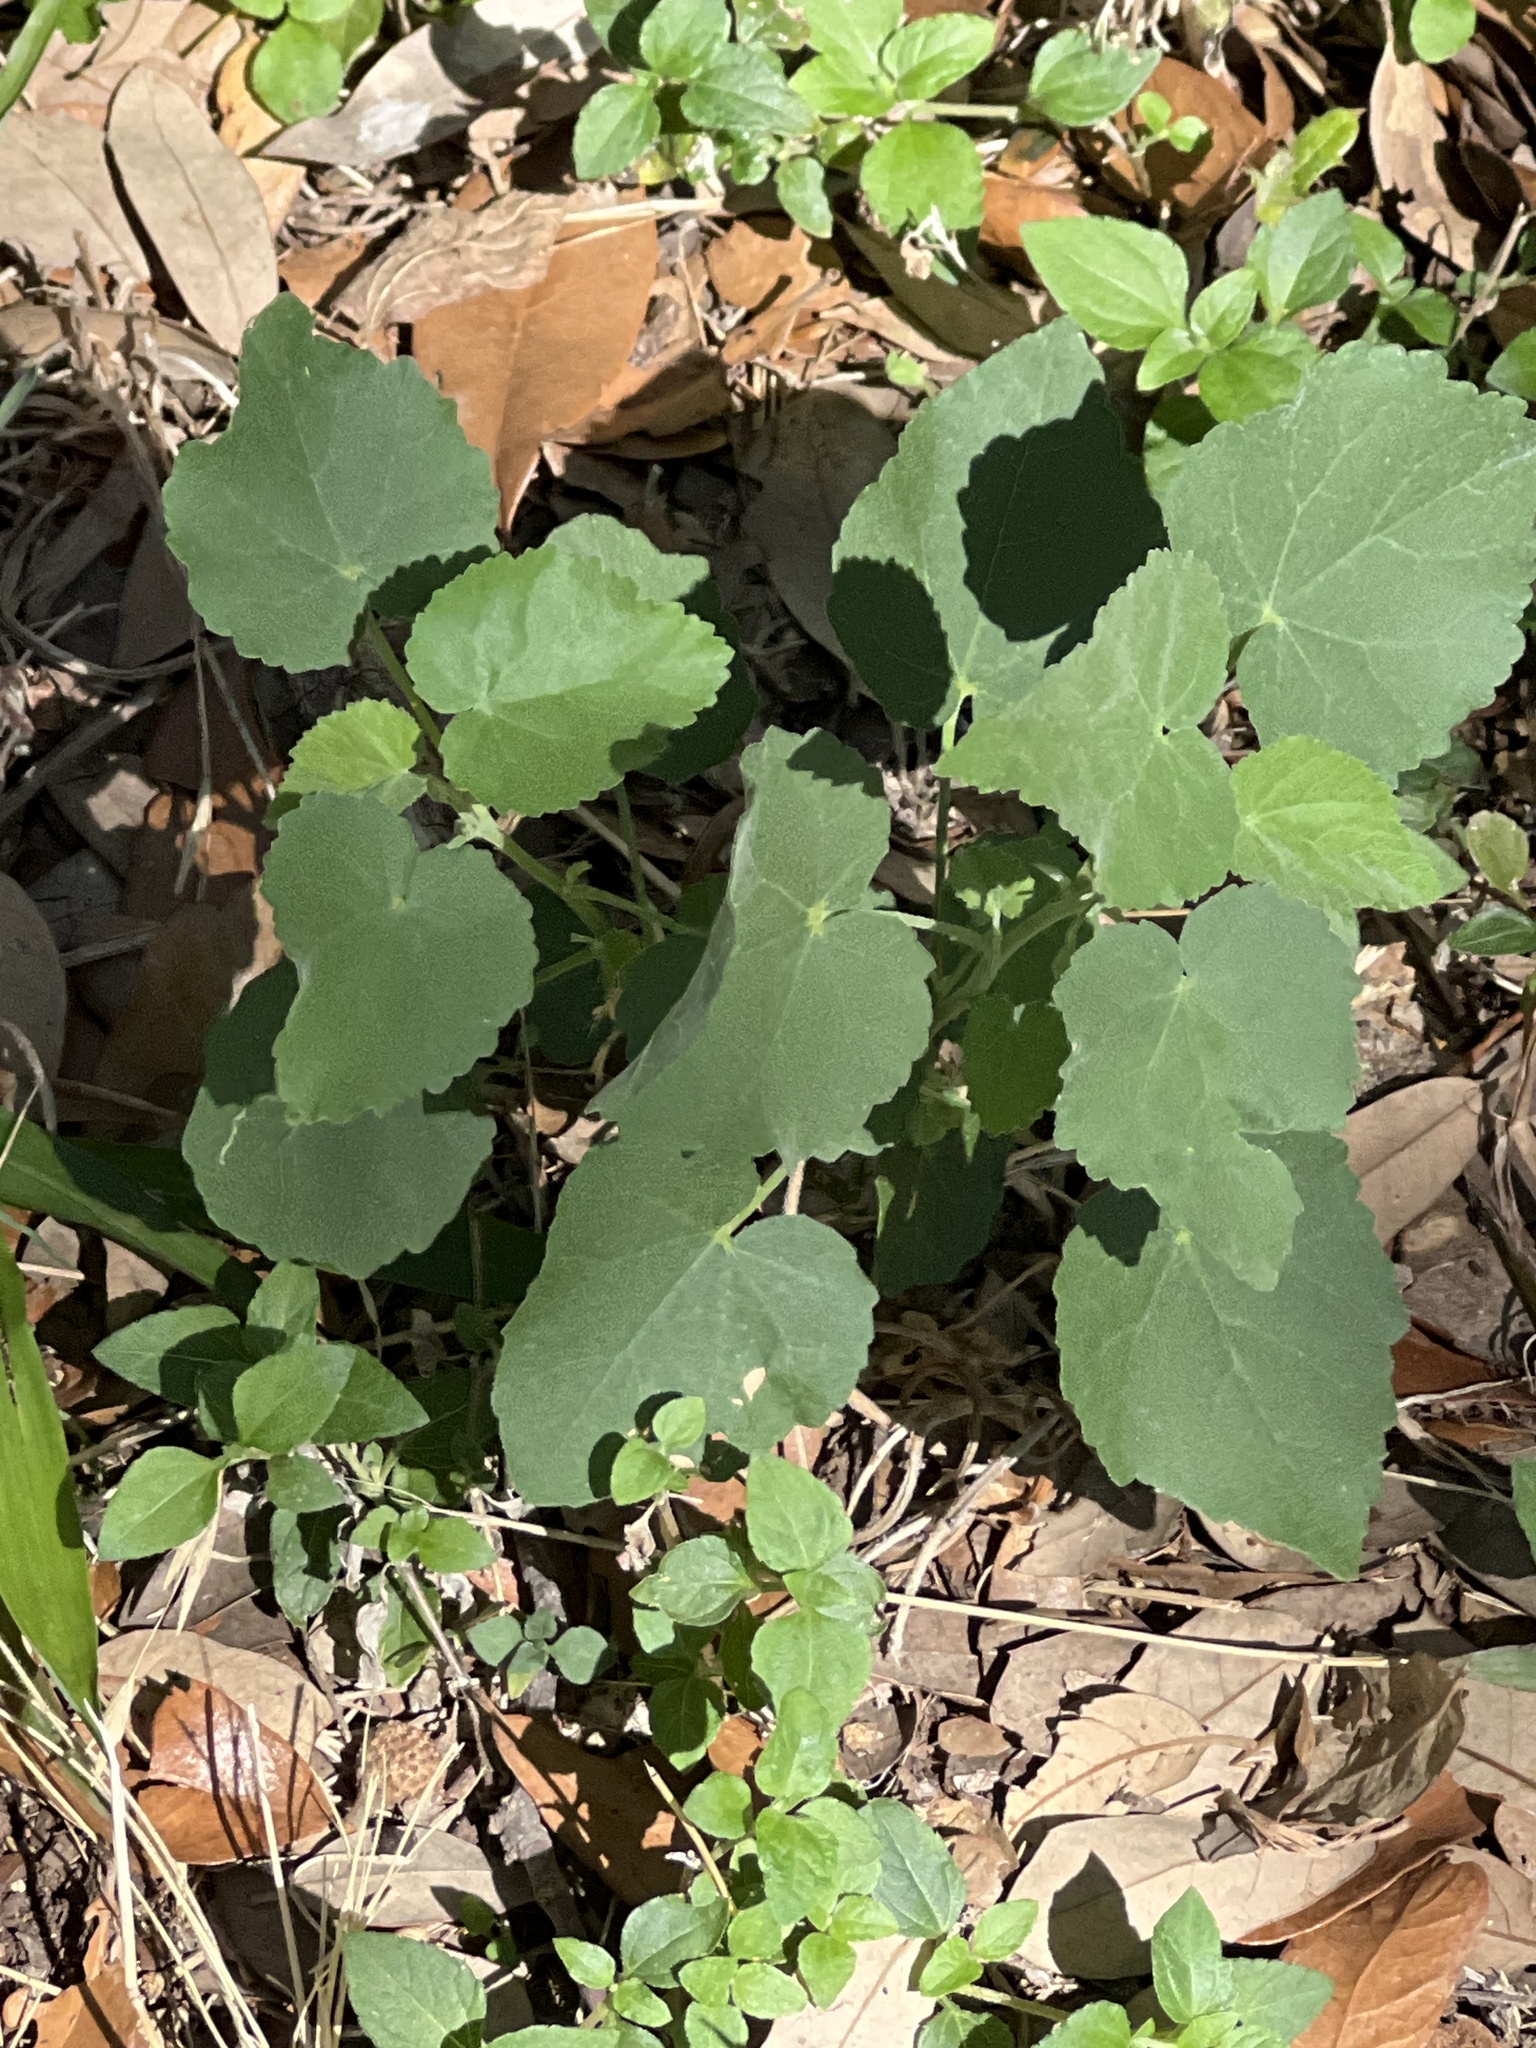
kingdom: Plantae
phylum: Tracheophyta
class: Magnoliopsida
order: Malvales
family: Malvaceae
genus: Allowissadula
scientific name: Allowissadula holosericea
